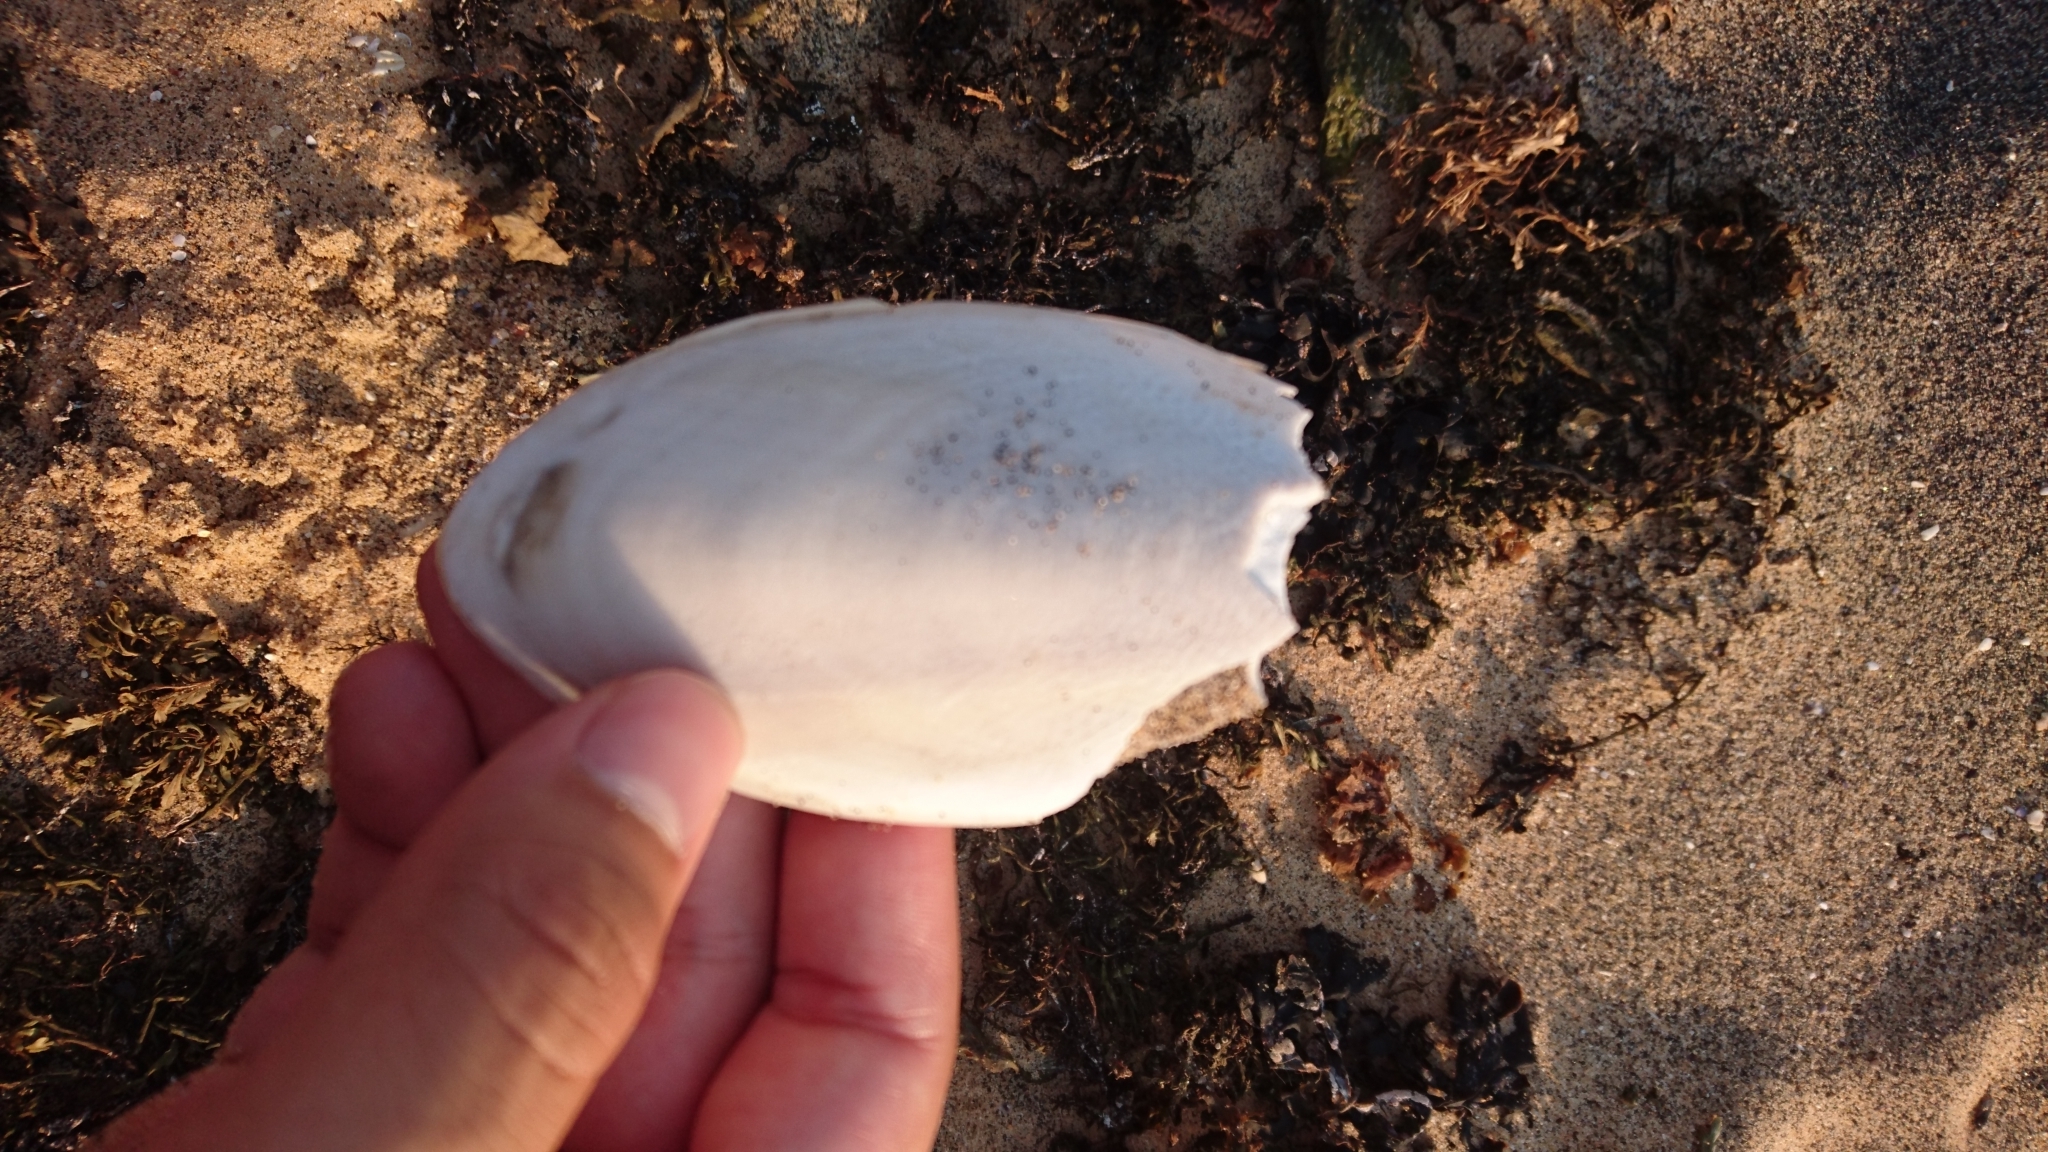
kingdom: Animalia
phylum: Mollusca
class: Cephalopoda
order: Sepiida
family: Sepiidae
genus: Ascarosepion
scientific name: Ascarosepion mestus
